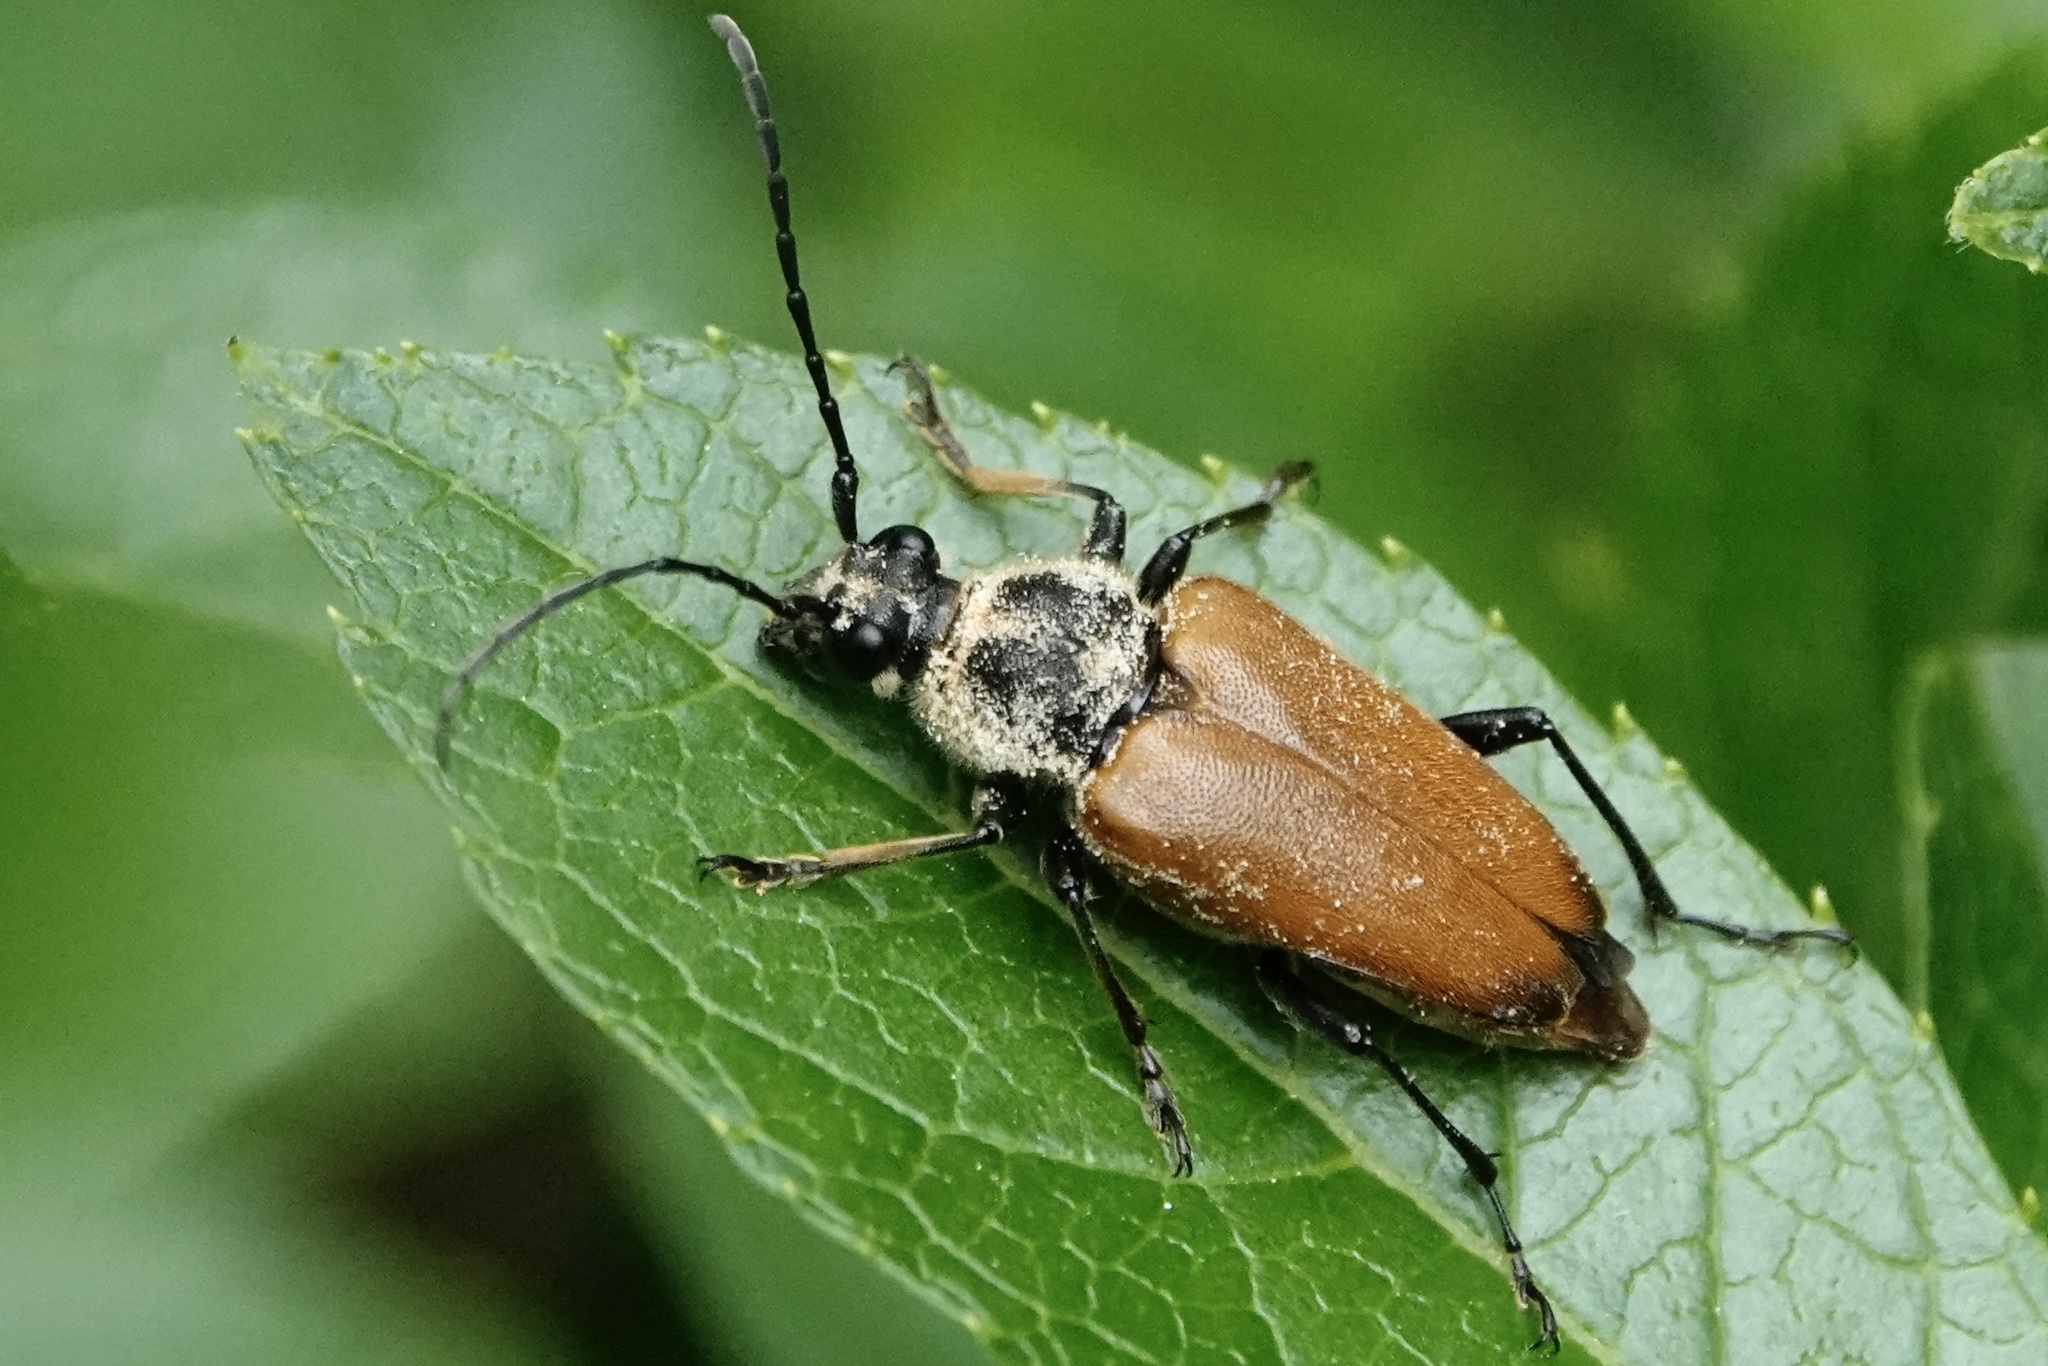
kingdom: Animalia
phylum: Arthropoda
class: Insecta
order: Coleoptera
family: Cerambycidae
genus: Trigonarthris
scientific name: Trigonarthris proxima
